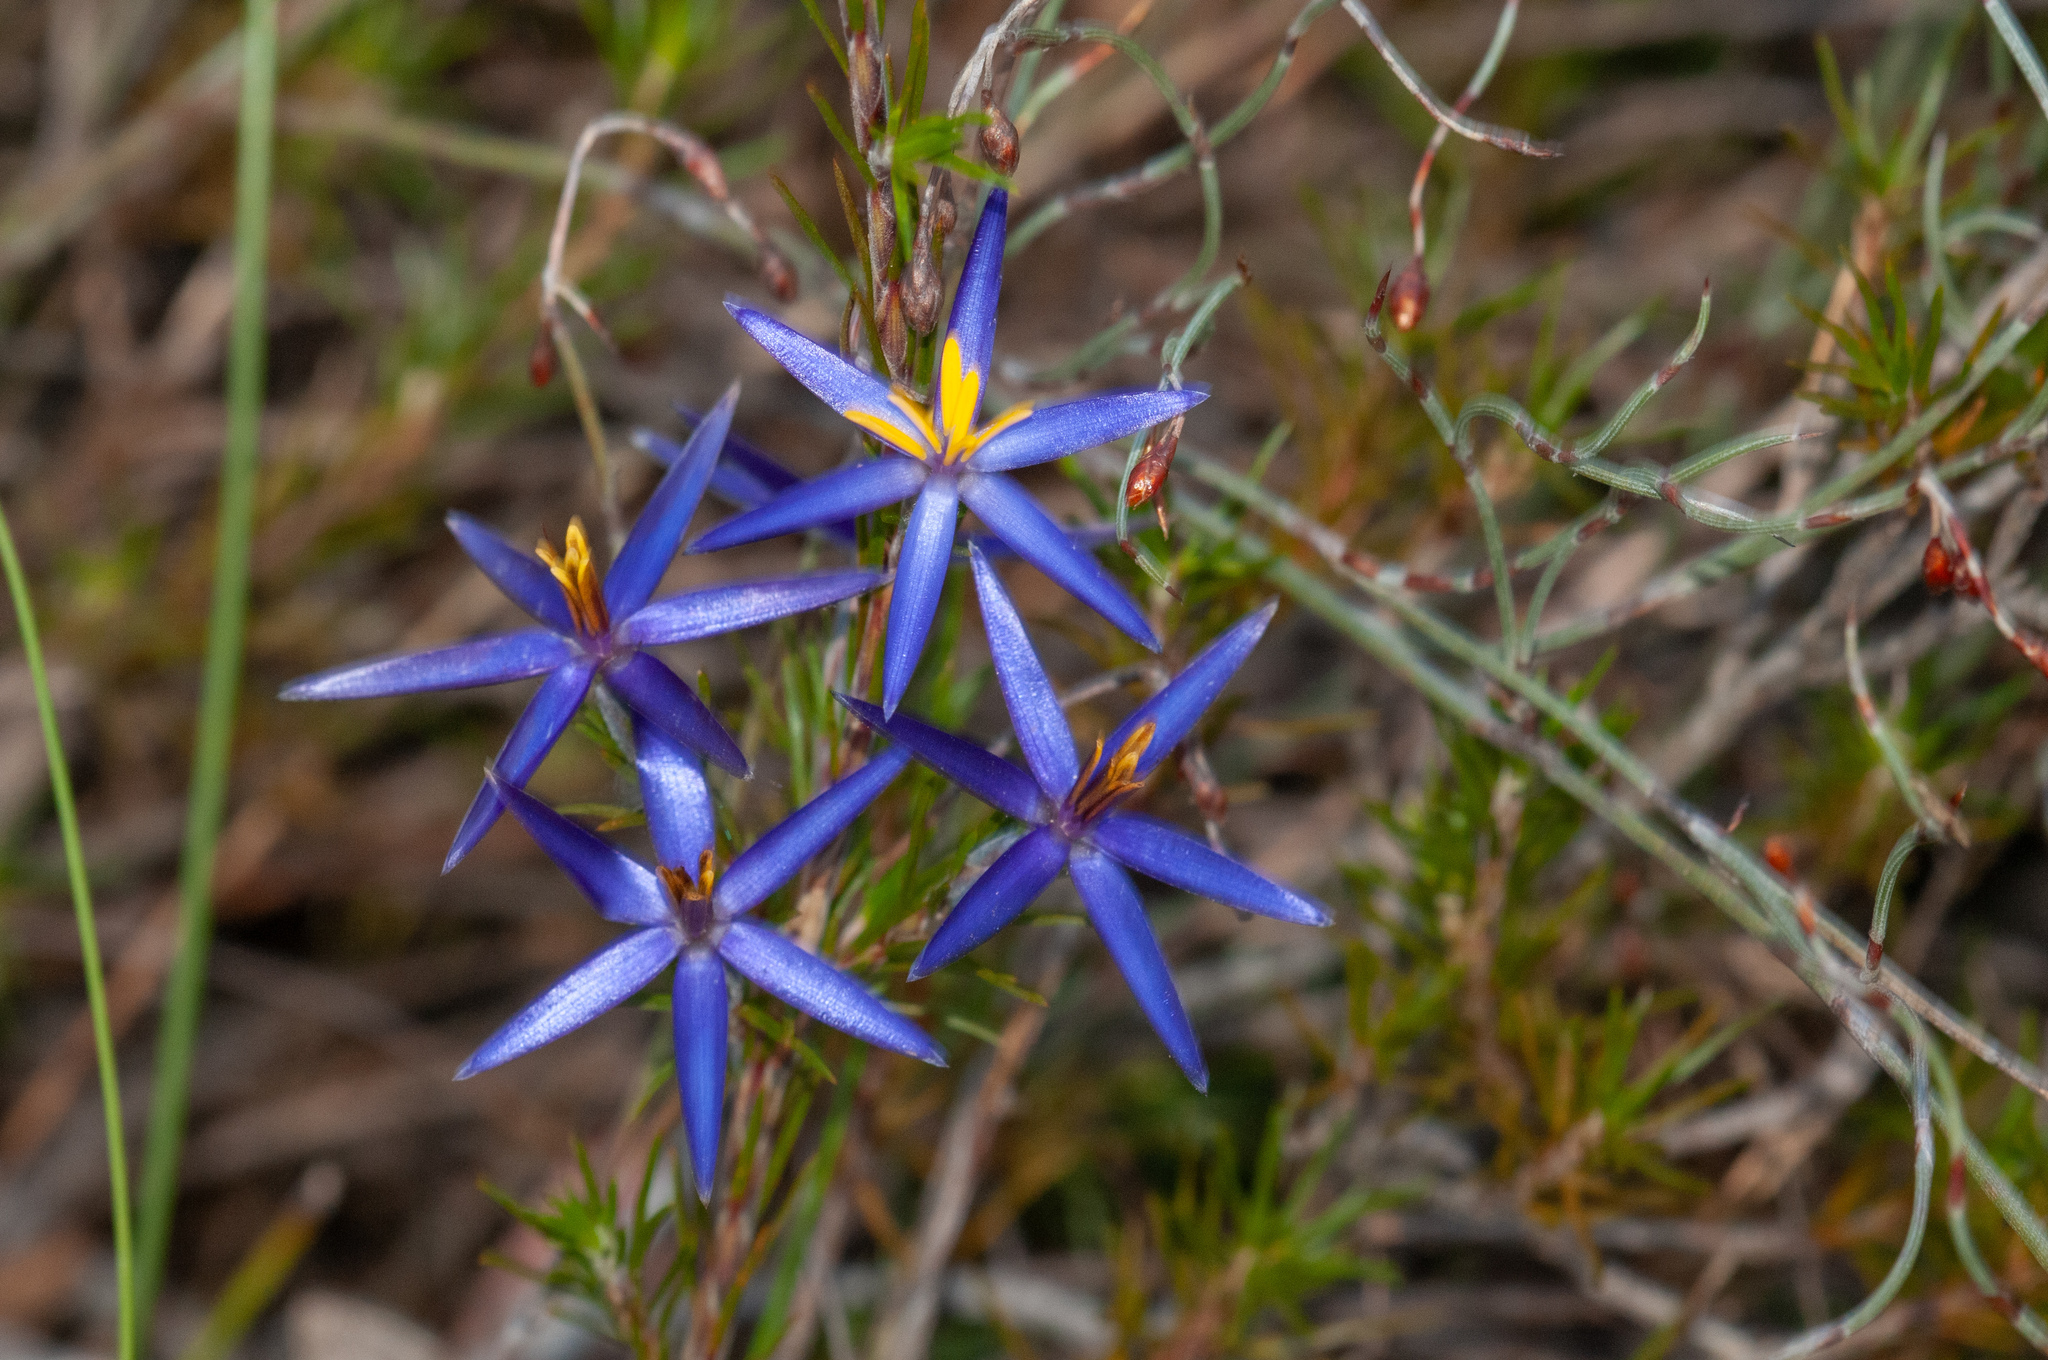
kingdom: Plantae
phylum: Tracheophyta
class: Liliopsida
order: Arecales
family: Dasypogonaceae
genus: Calectasia
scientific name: Calectasia intermedia
